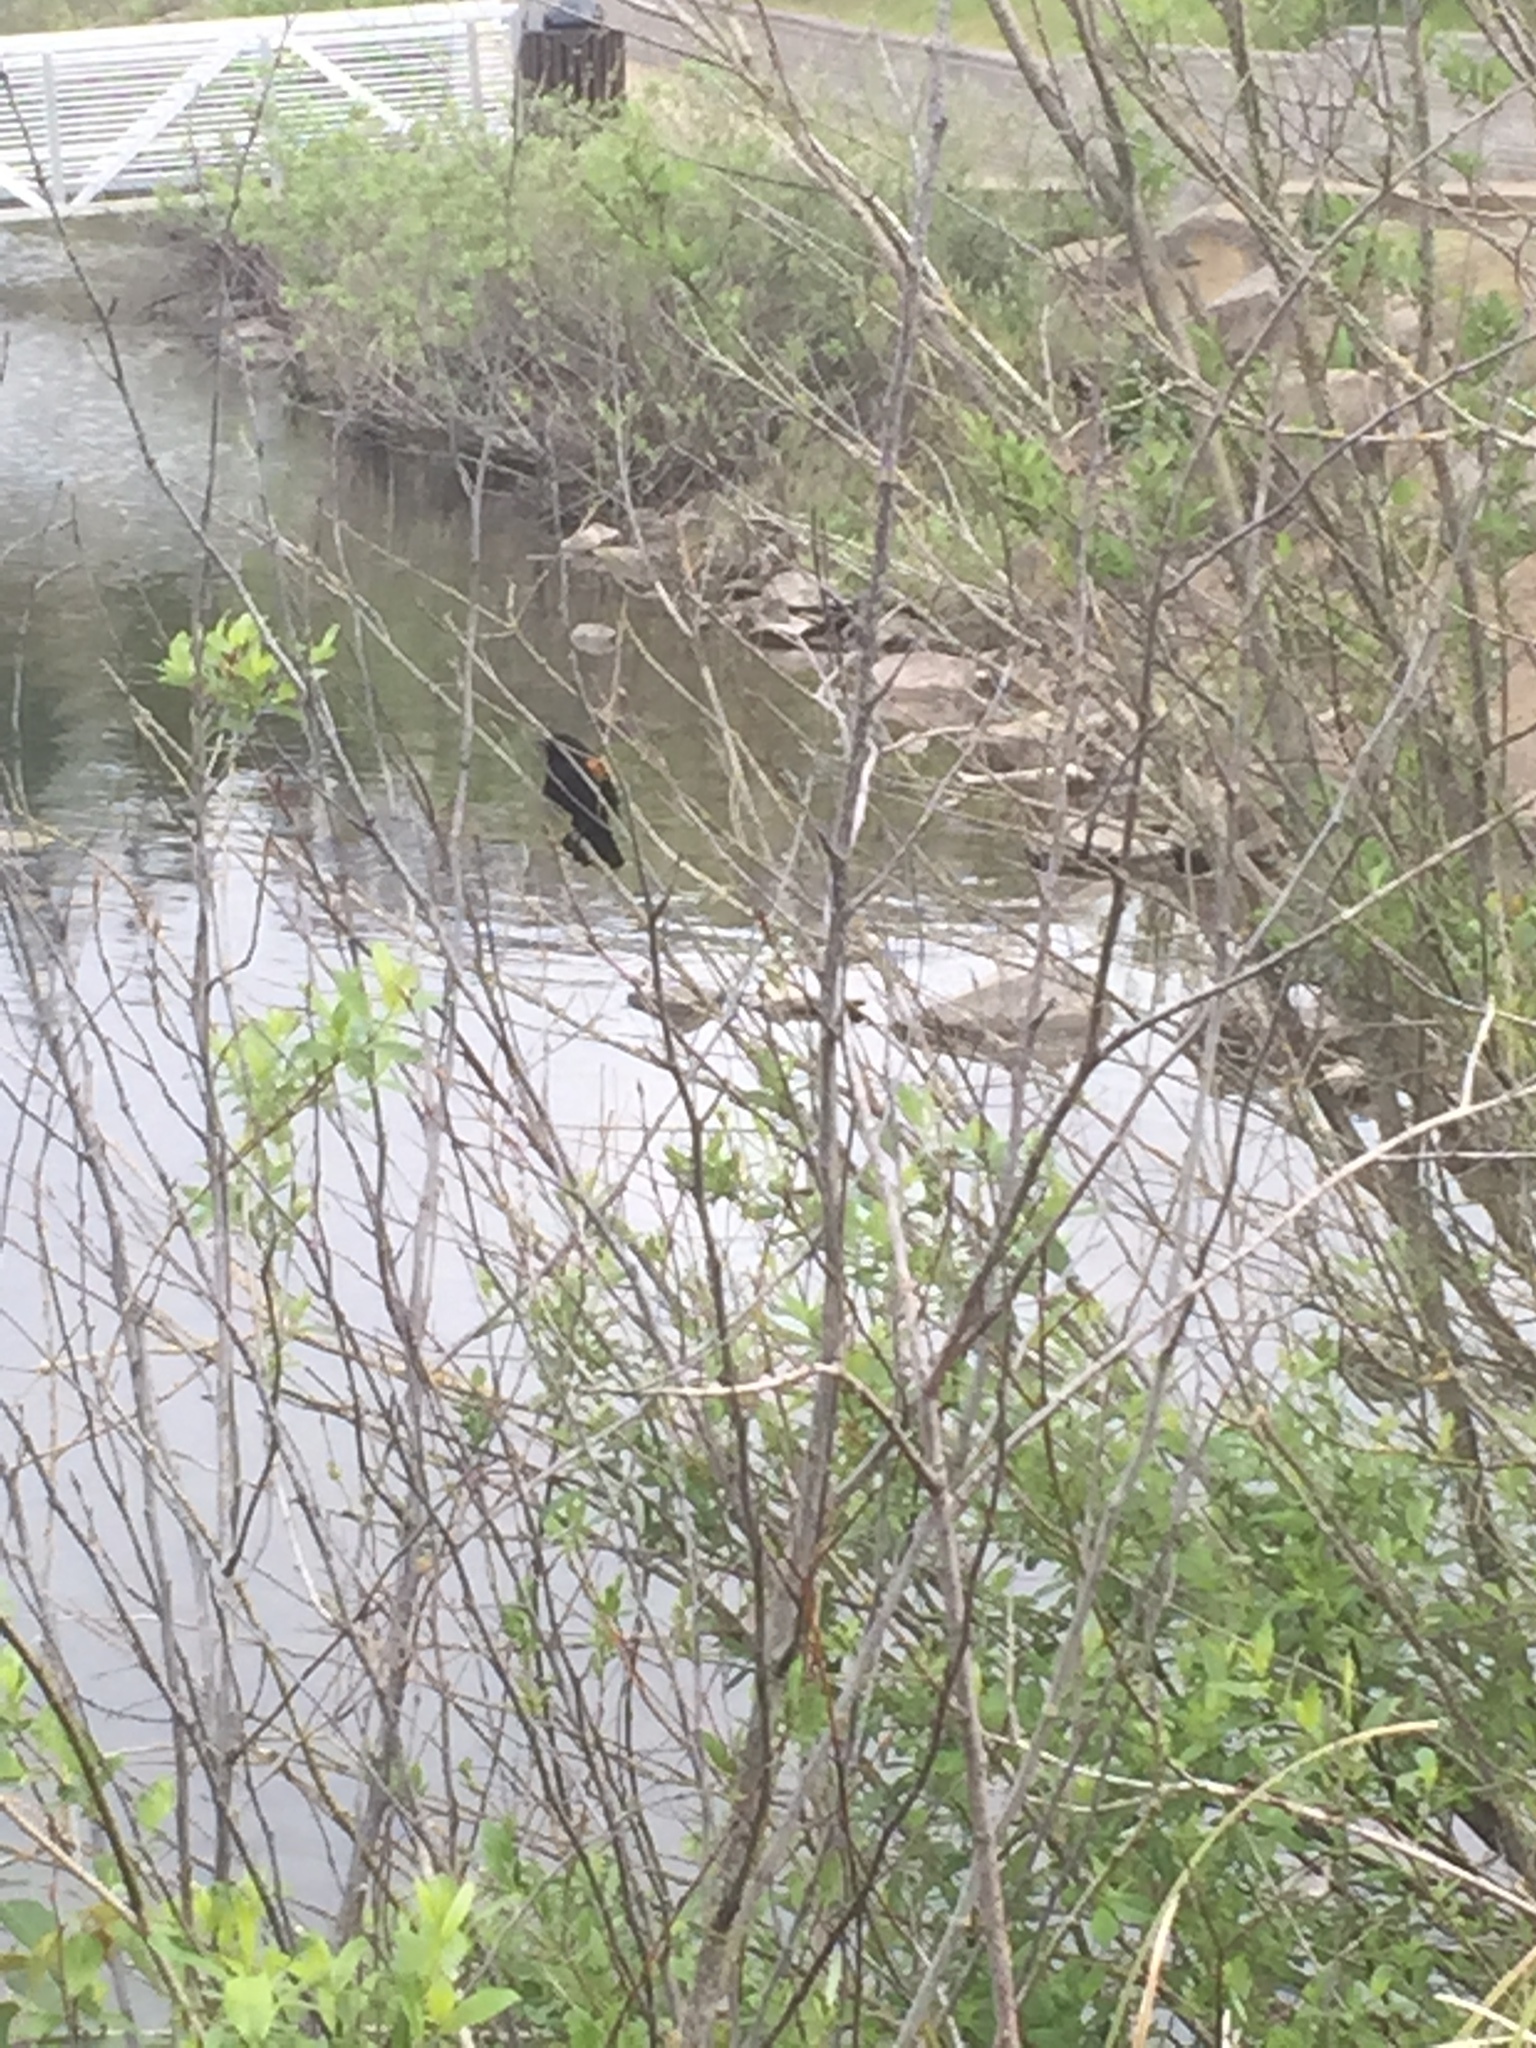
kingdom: Animalia
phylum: Chordata
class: Aves
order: Passeriformes
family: Icteridae
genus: Agelaius
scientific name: Agelaius phoeniceus
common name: Red-winged blackbird
